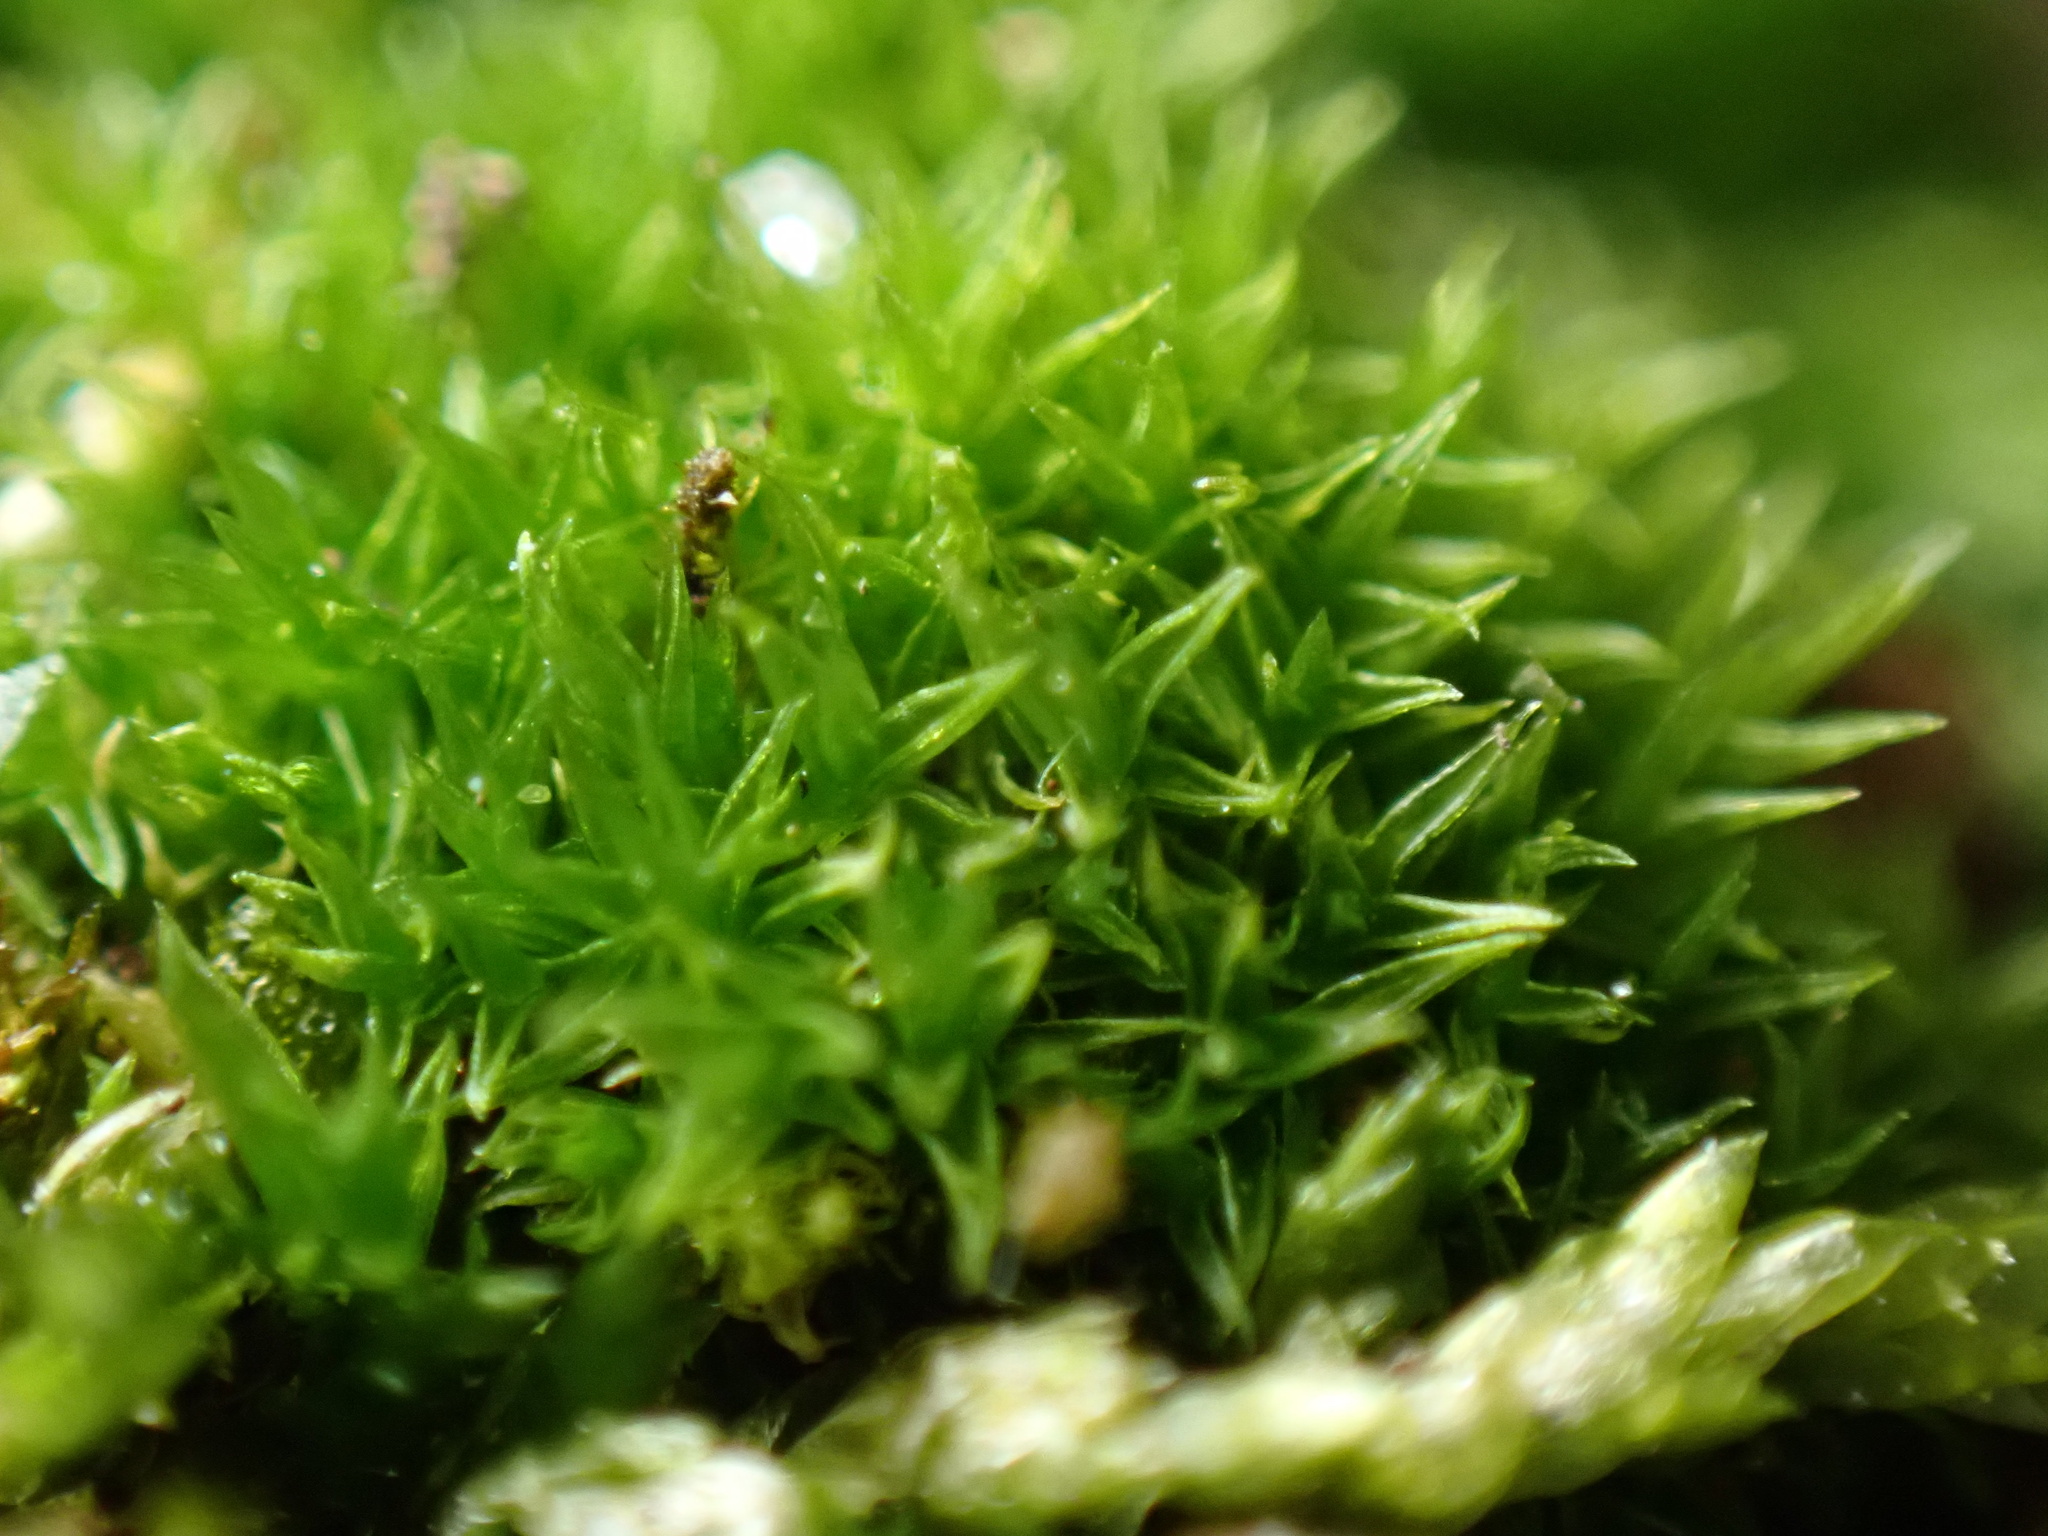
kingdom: Plantae
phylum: Bryophyta
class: Bryopsida
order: Dicranales
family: Ditrichaceae
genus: Ceratodon
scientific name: Ceratodon purpureus
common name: Redshank
